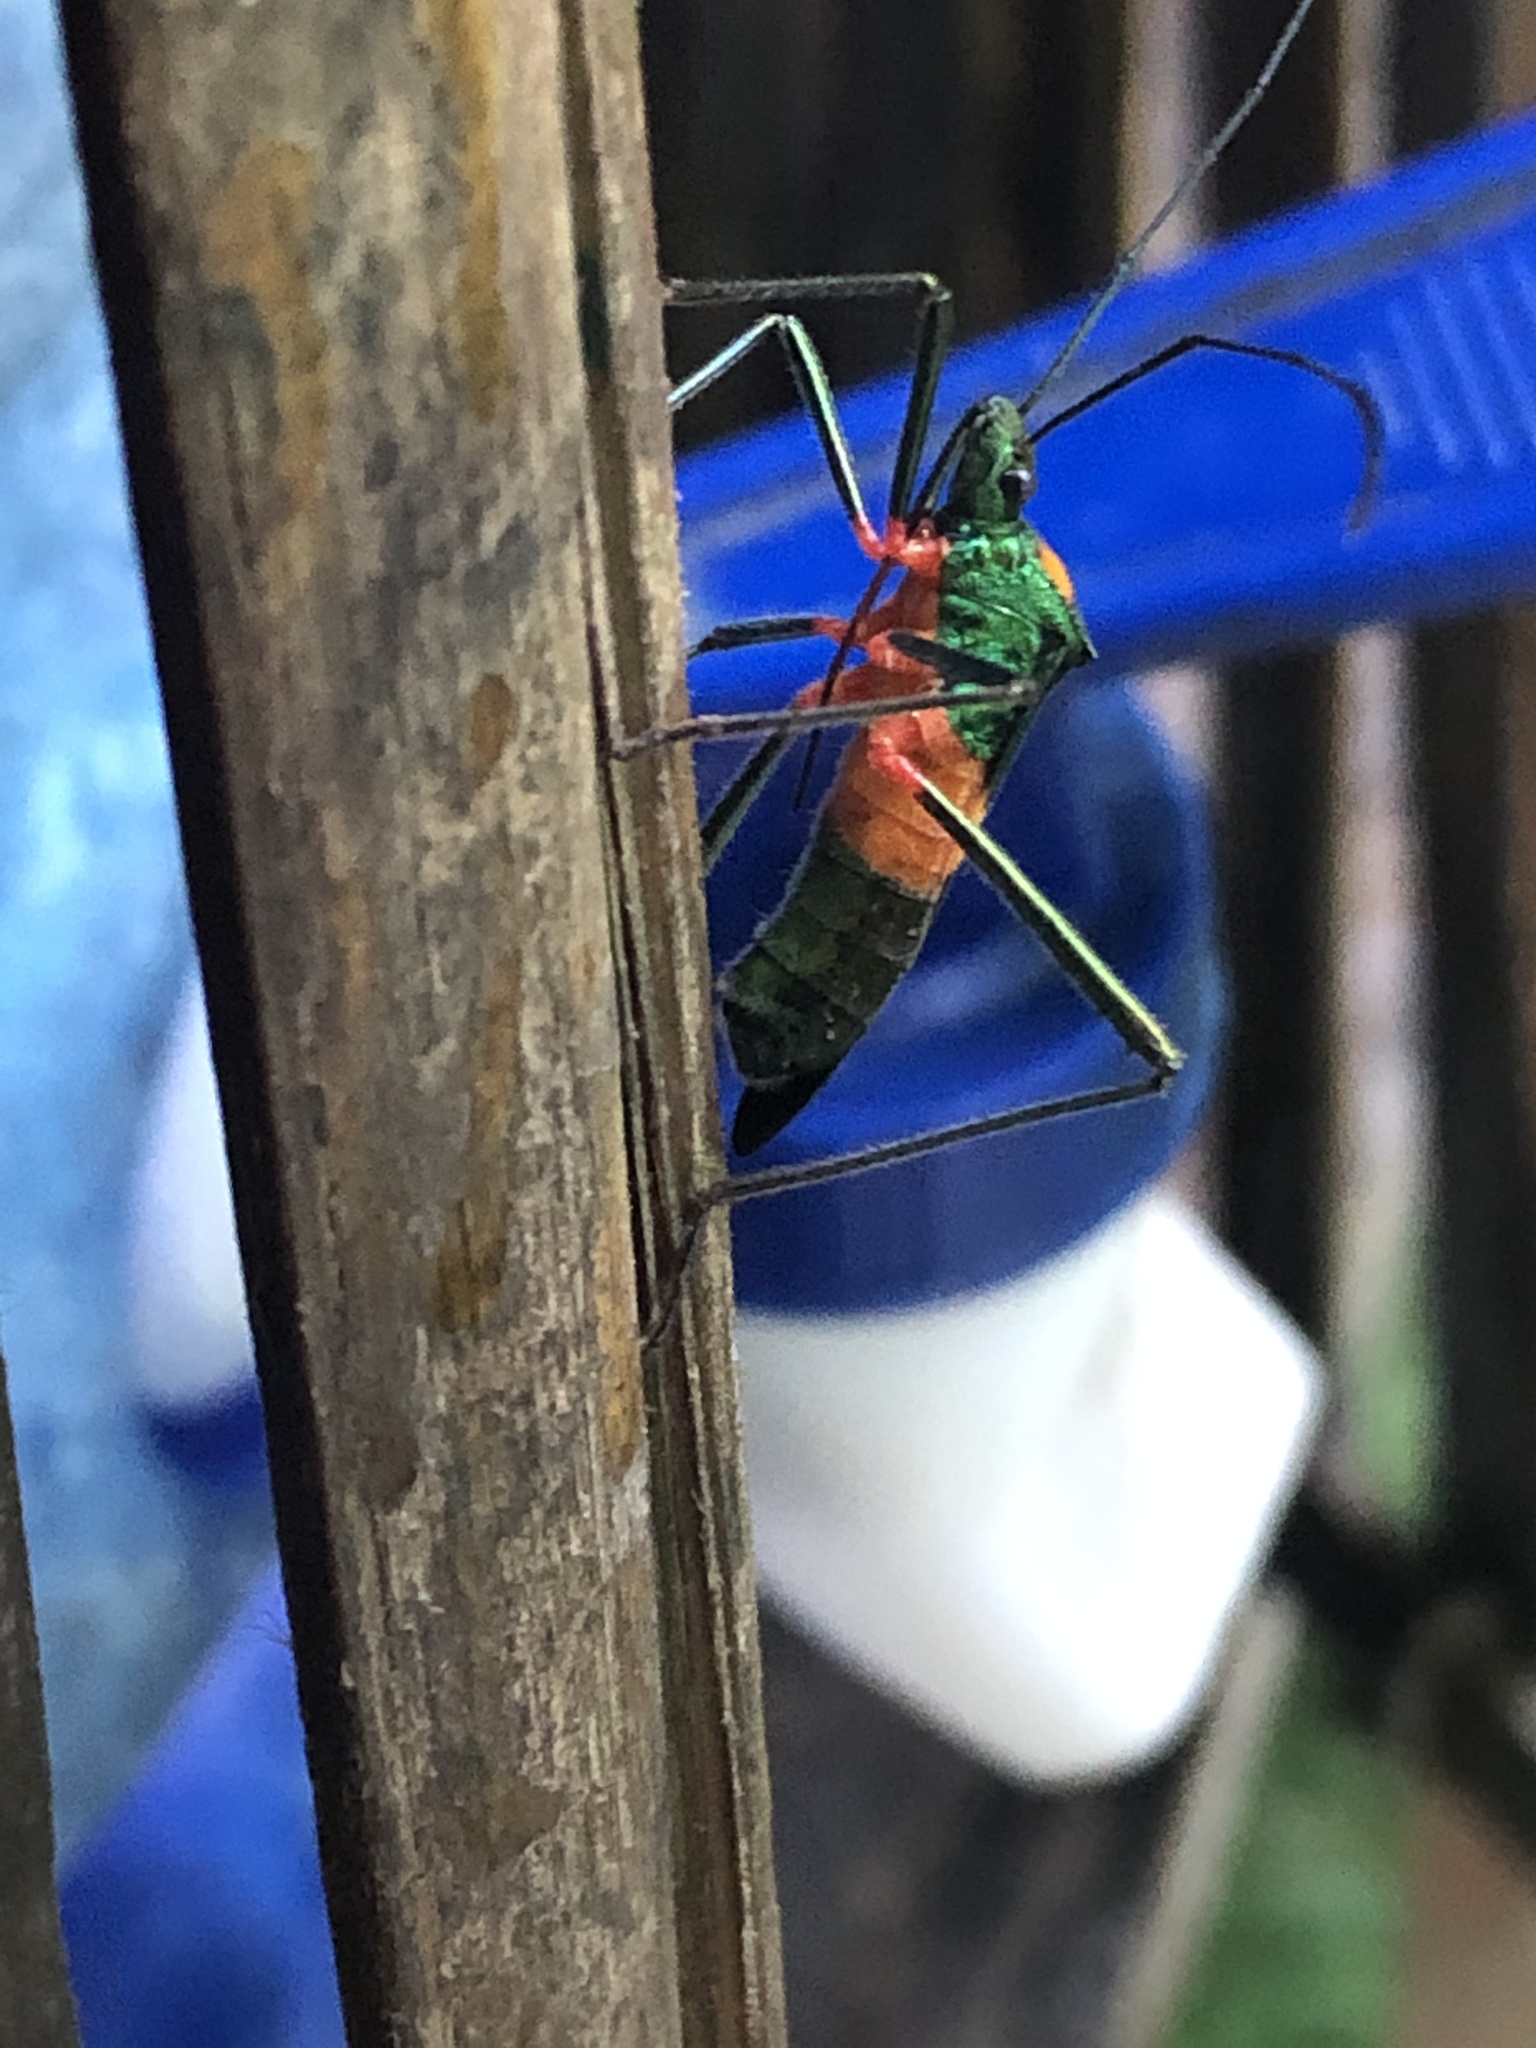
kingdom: Animalia
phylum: Arthropoda
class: Insecta
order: Hemiptera
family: Coreidae
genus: Phthiarella
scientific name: Phthiarella decorata
